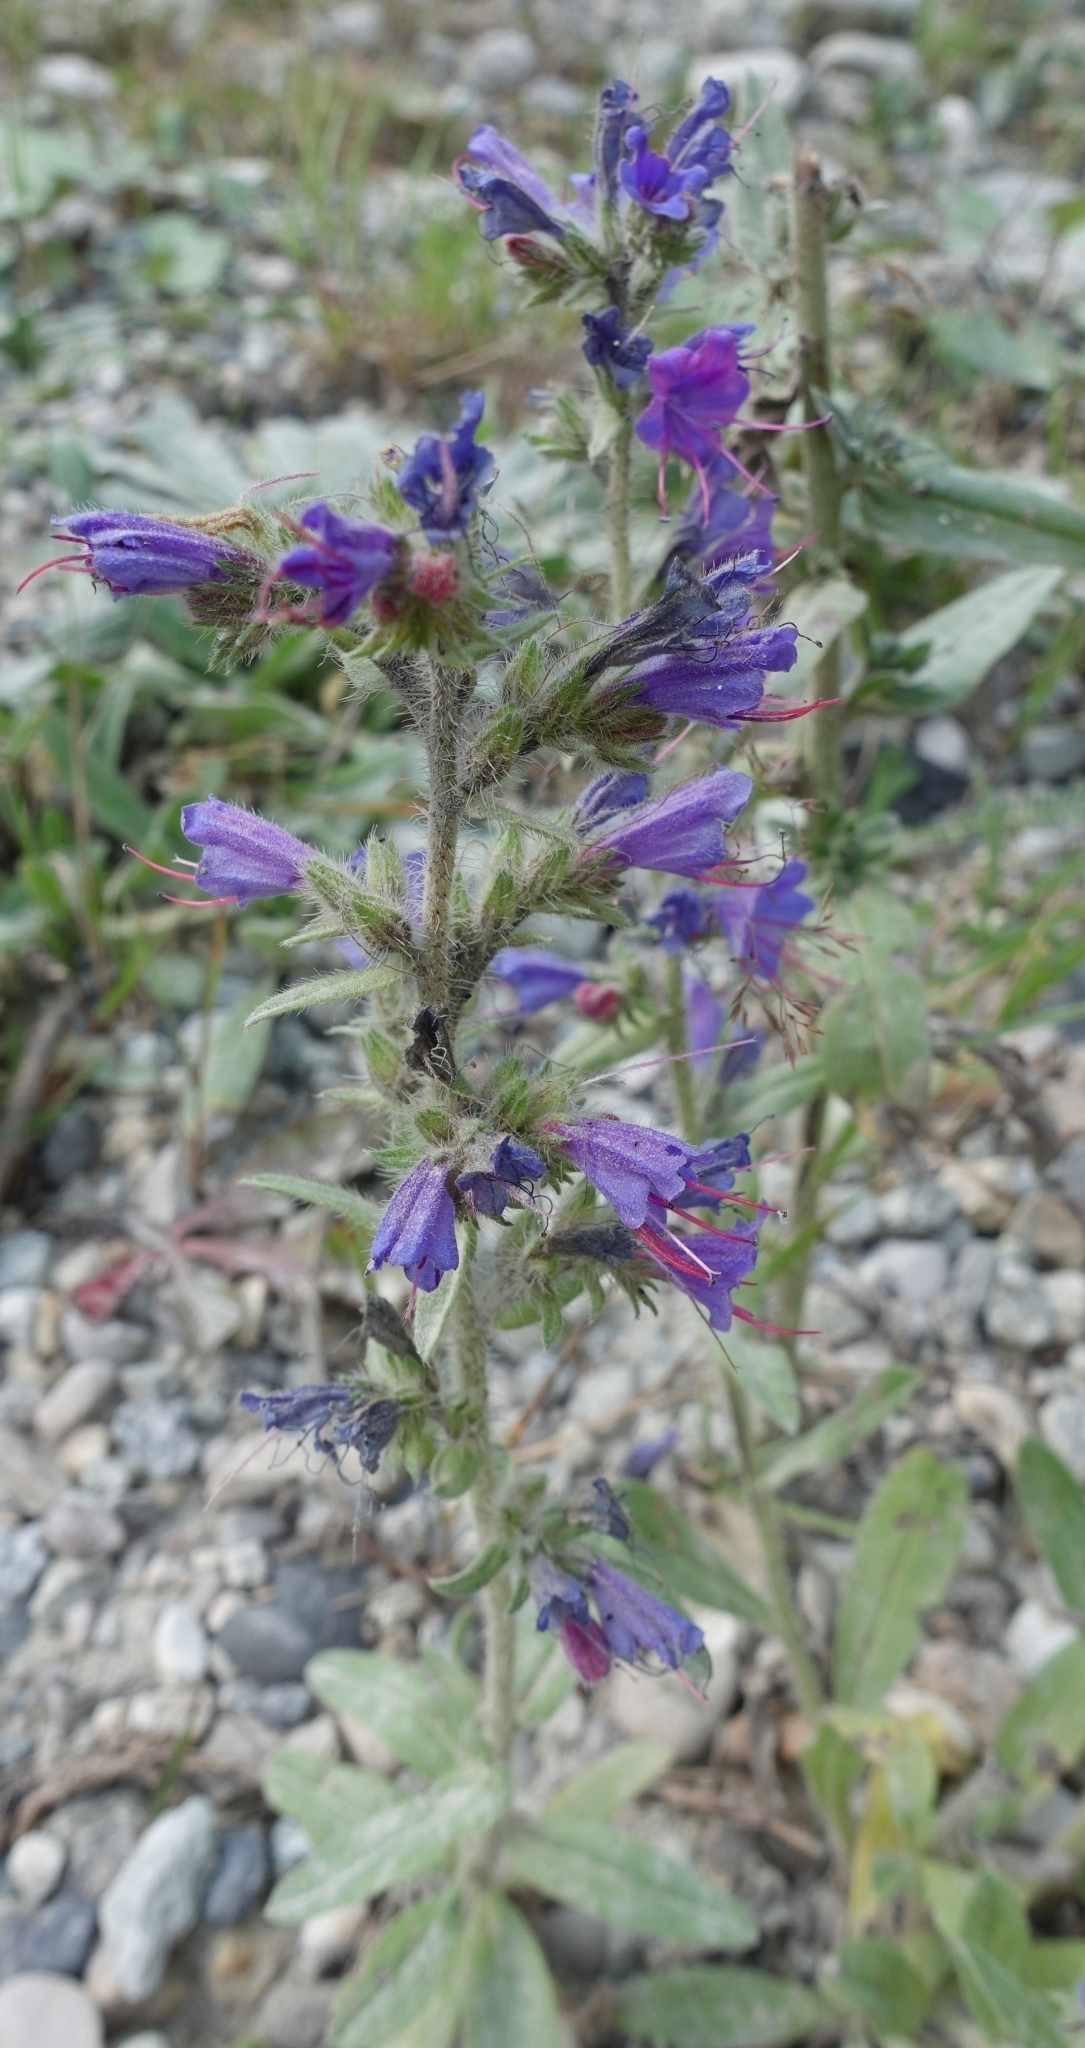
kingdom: Plantae
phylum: Tracheophyta
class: Magnoliopsida
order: Boraginales
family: Boraginaceae
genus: Echium
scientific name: Echium vulgare
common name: Common viper's bugloss
